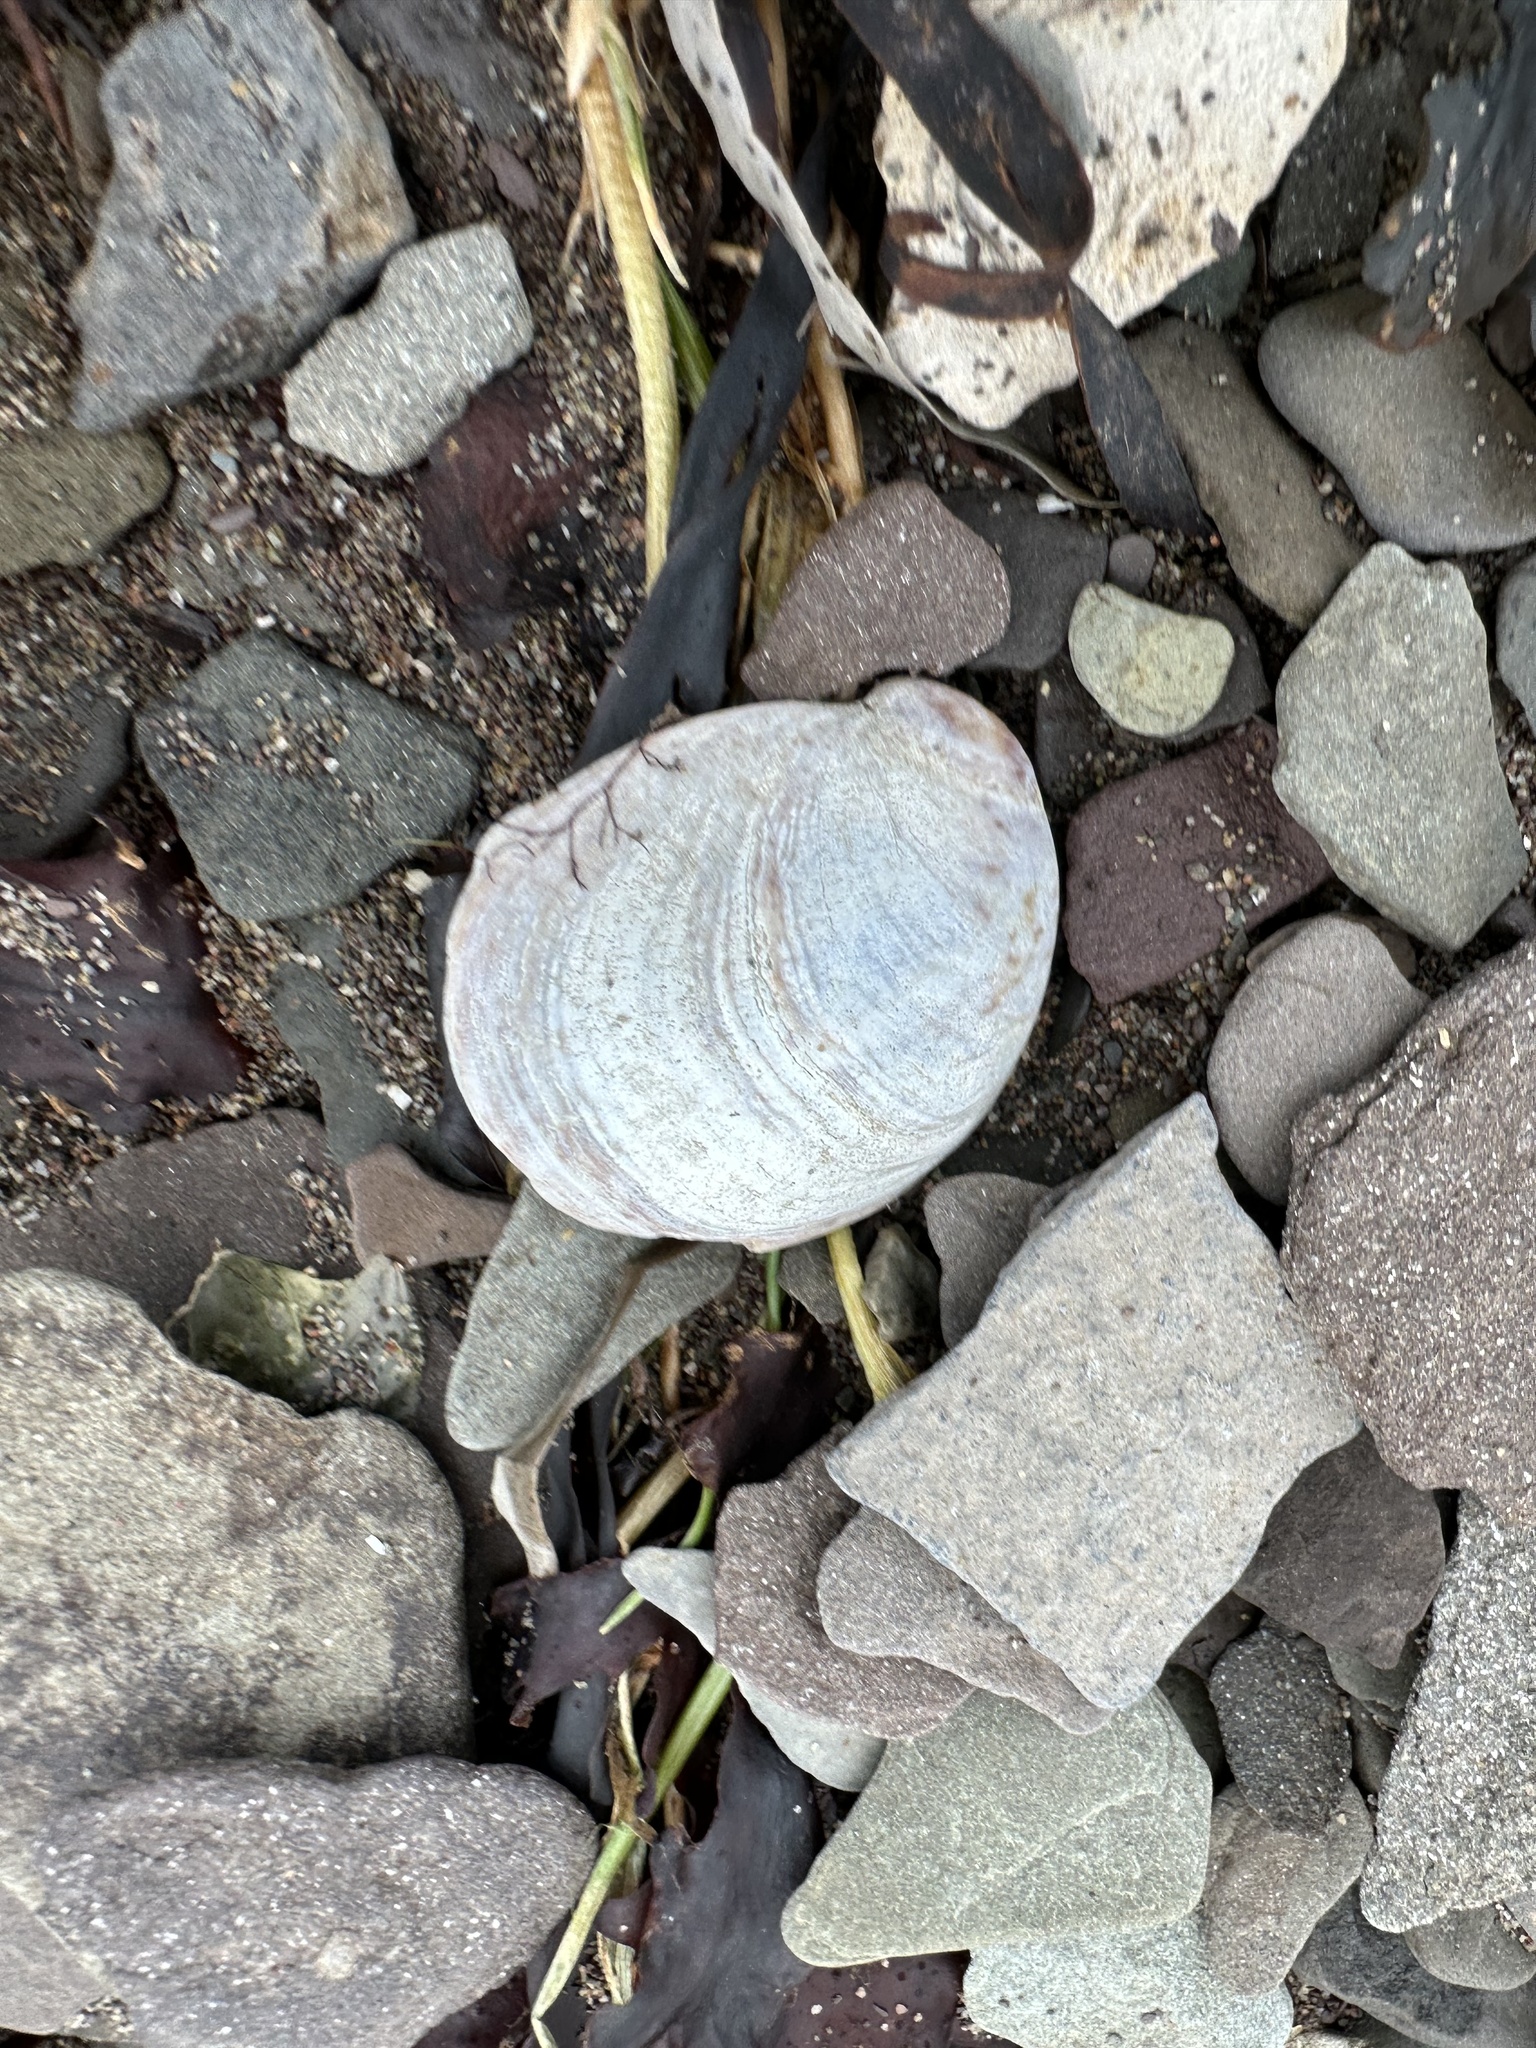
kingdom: Animalia
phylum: Mollusca
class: Gastropoda
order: Littorinimorpha
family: Calyptraeidae
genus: Crepidula
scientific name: Crepidula fornicata
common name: Slipper limpet
